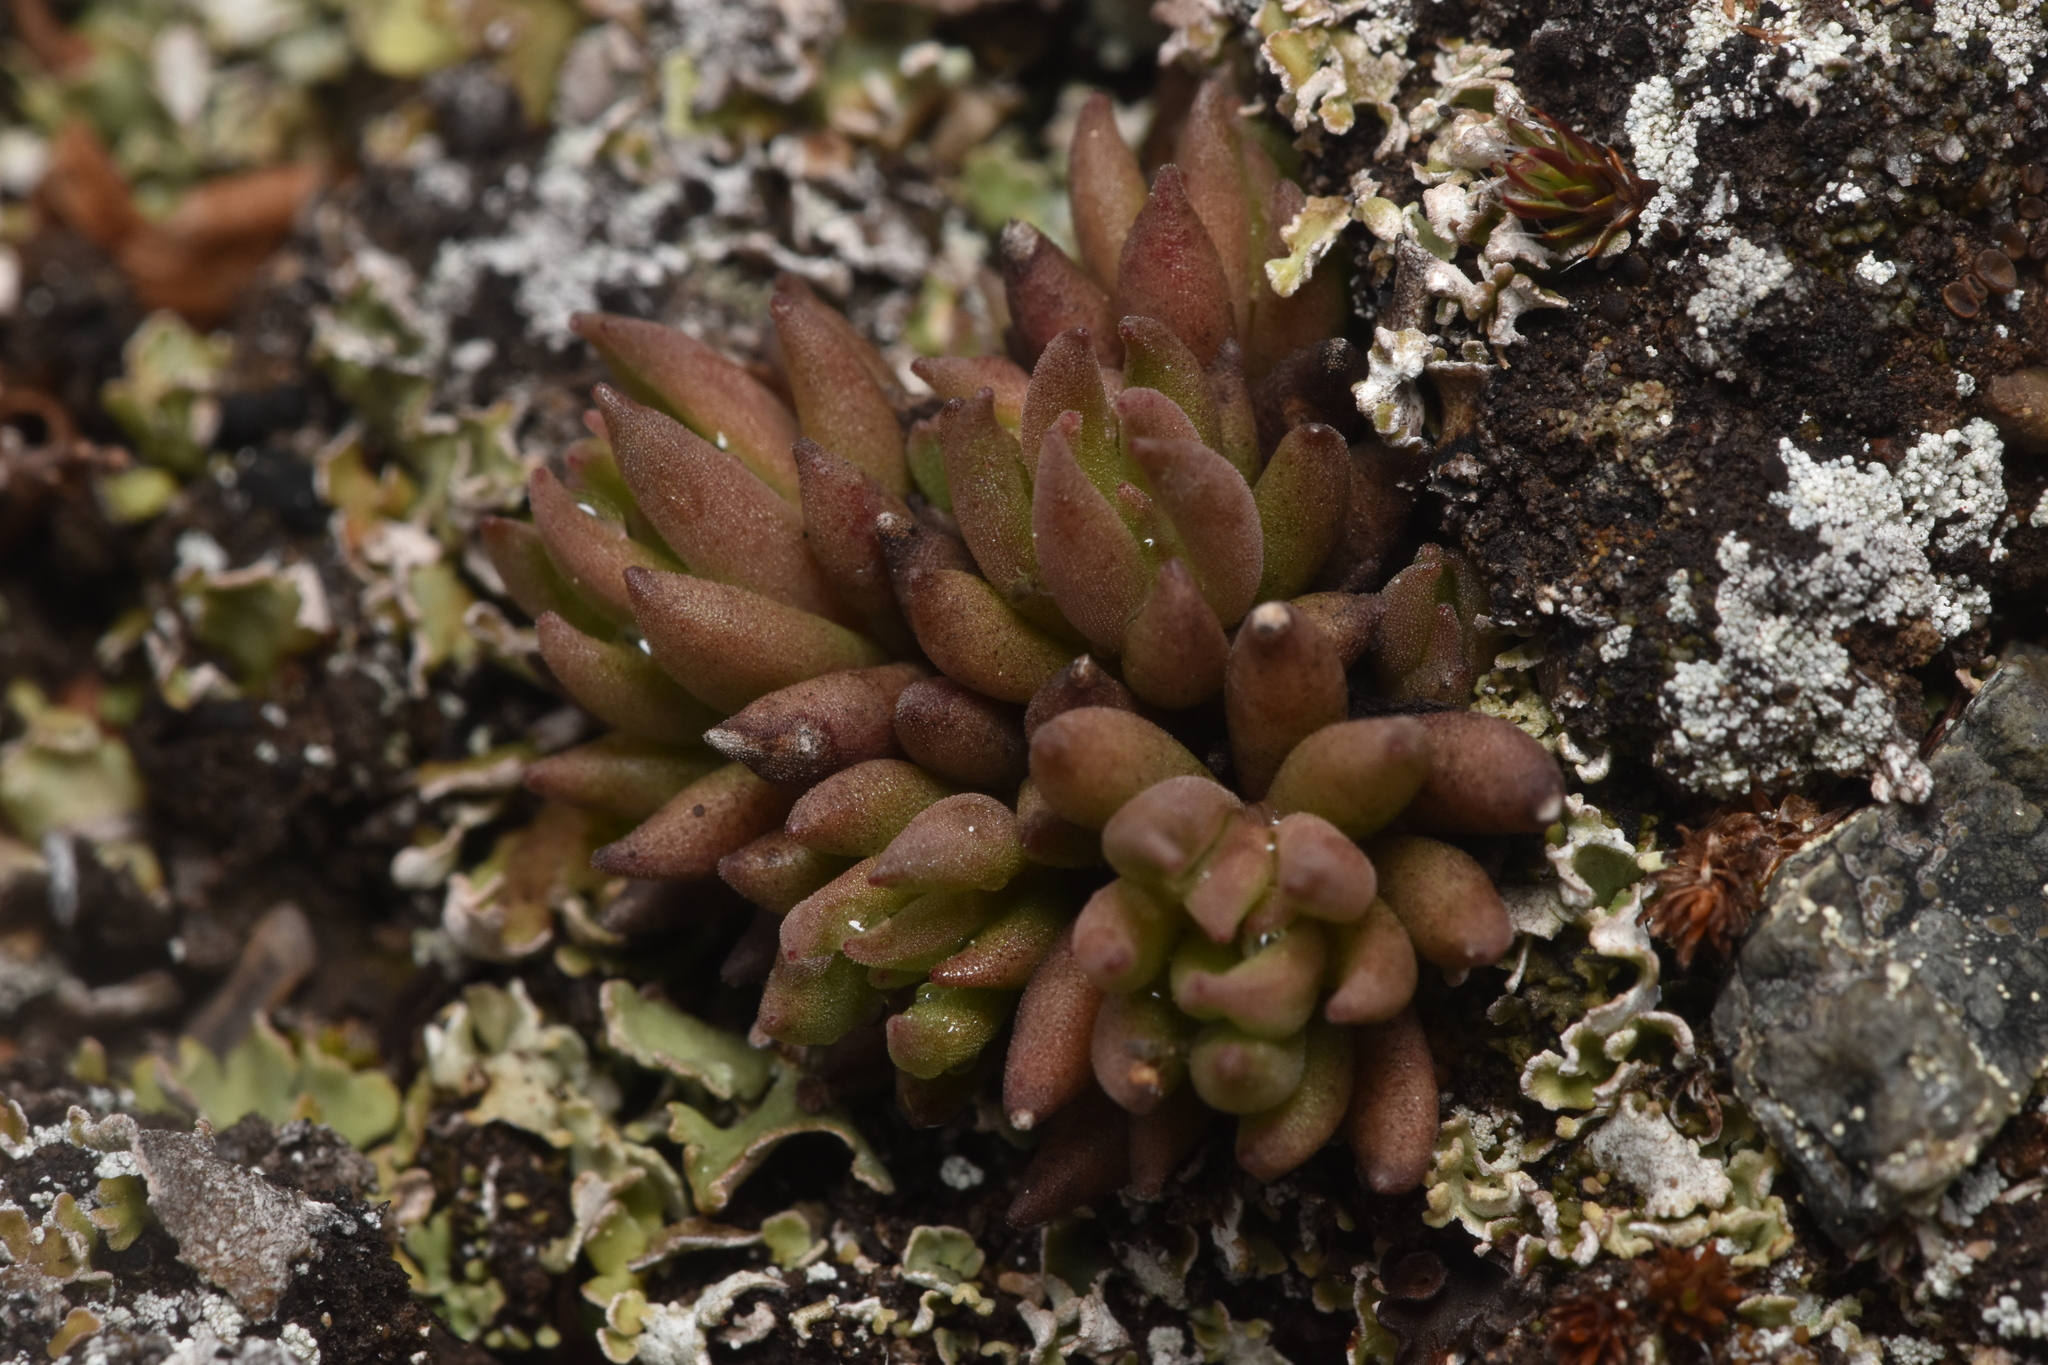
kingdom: Plantae
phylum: Tracheophyta
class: Magnoliopsida
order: Saxifragales
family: Crassulaceae
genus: Sedum
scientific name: Sedum lanceolatum
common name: Common stonecrop
